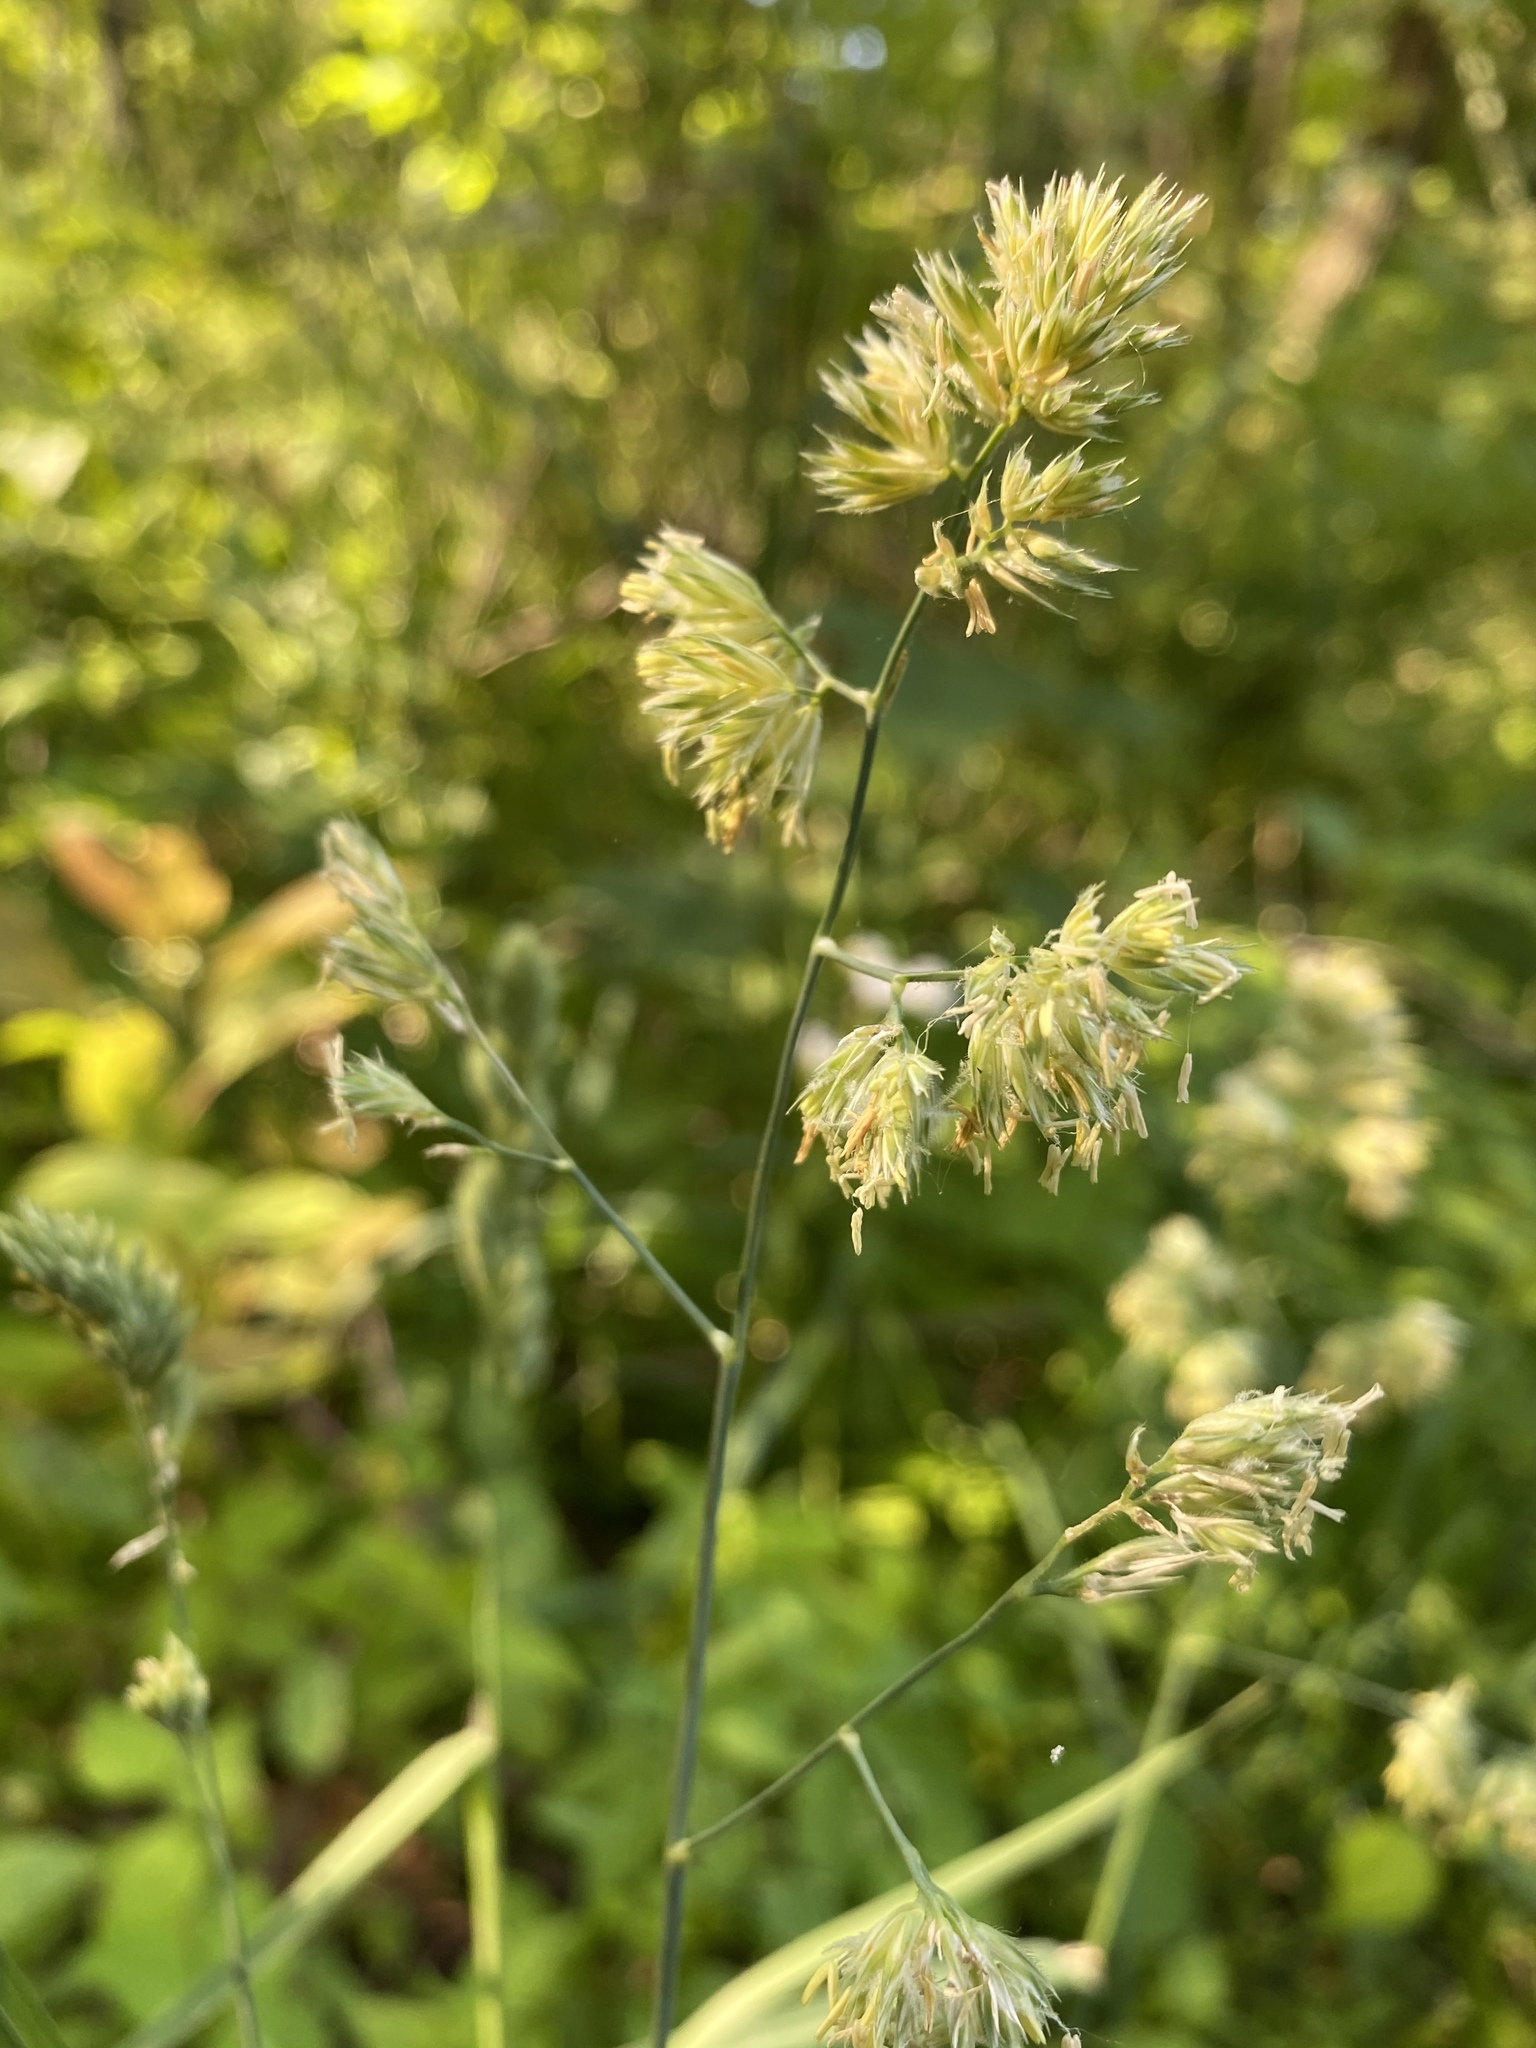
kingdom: Plantae
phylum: Tracheophyta
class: Liliopsida
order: Poales
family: Poaceae
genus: Dactylis
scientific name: Dactylis glomerata
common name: Orchardgrass
